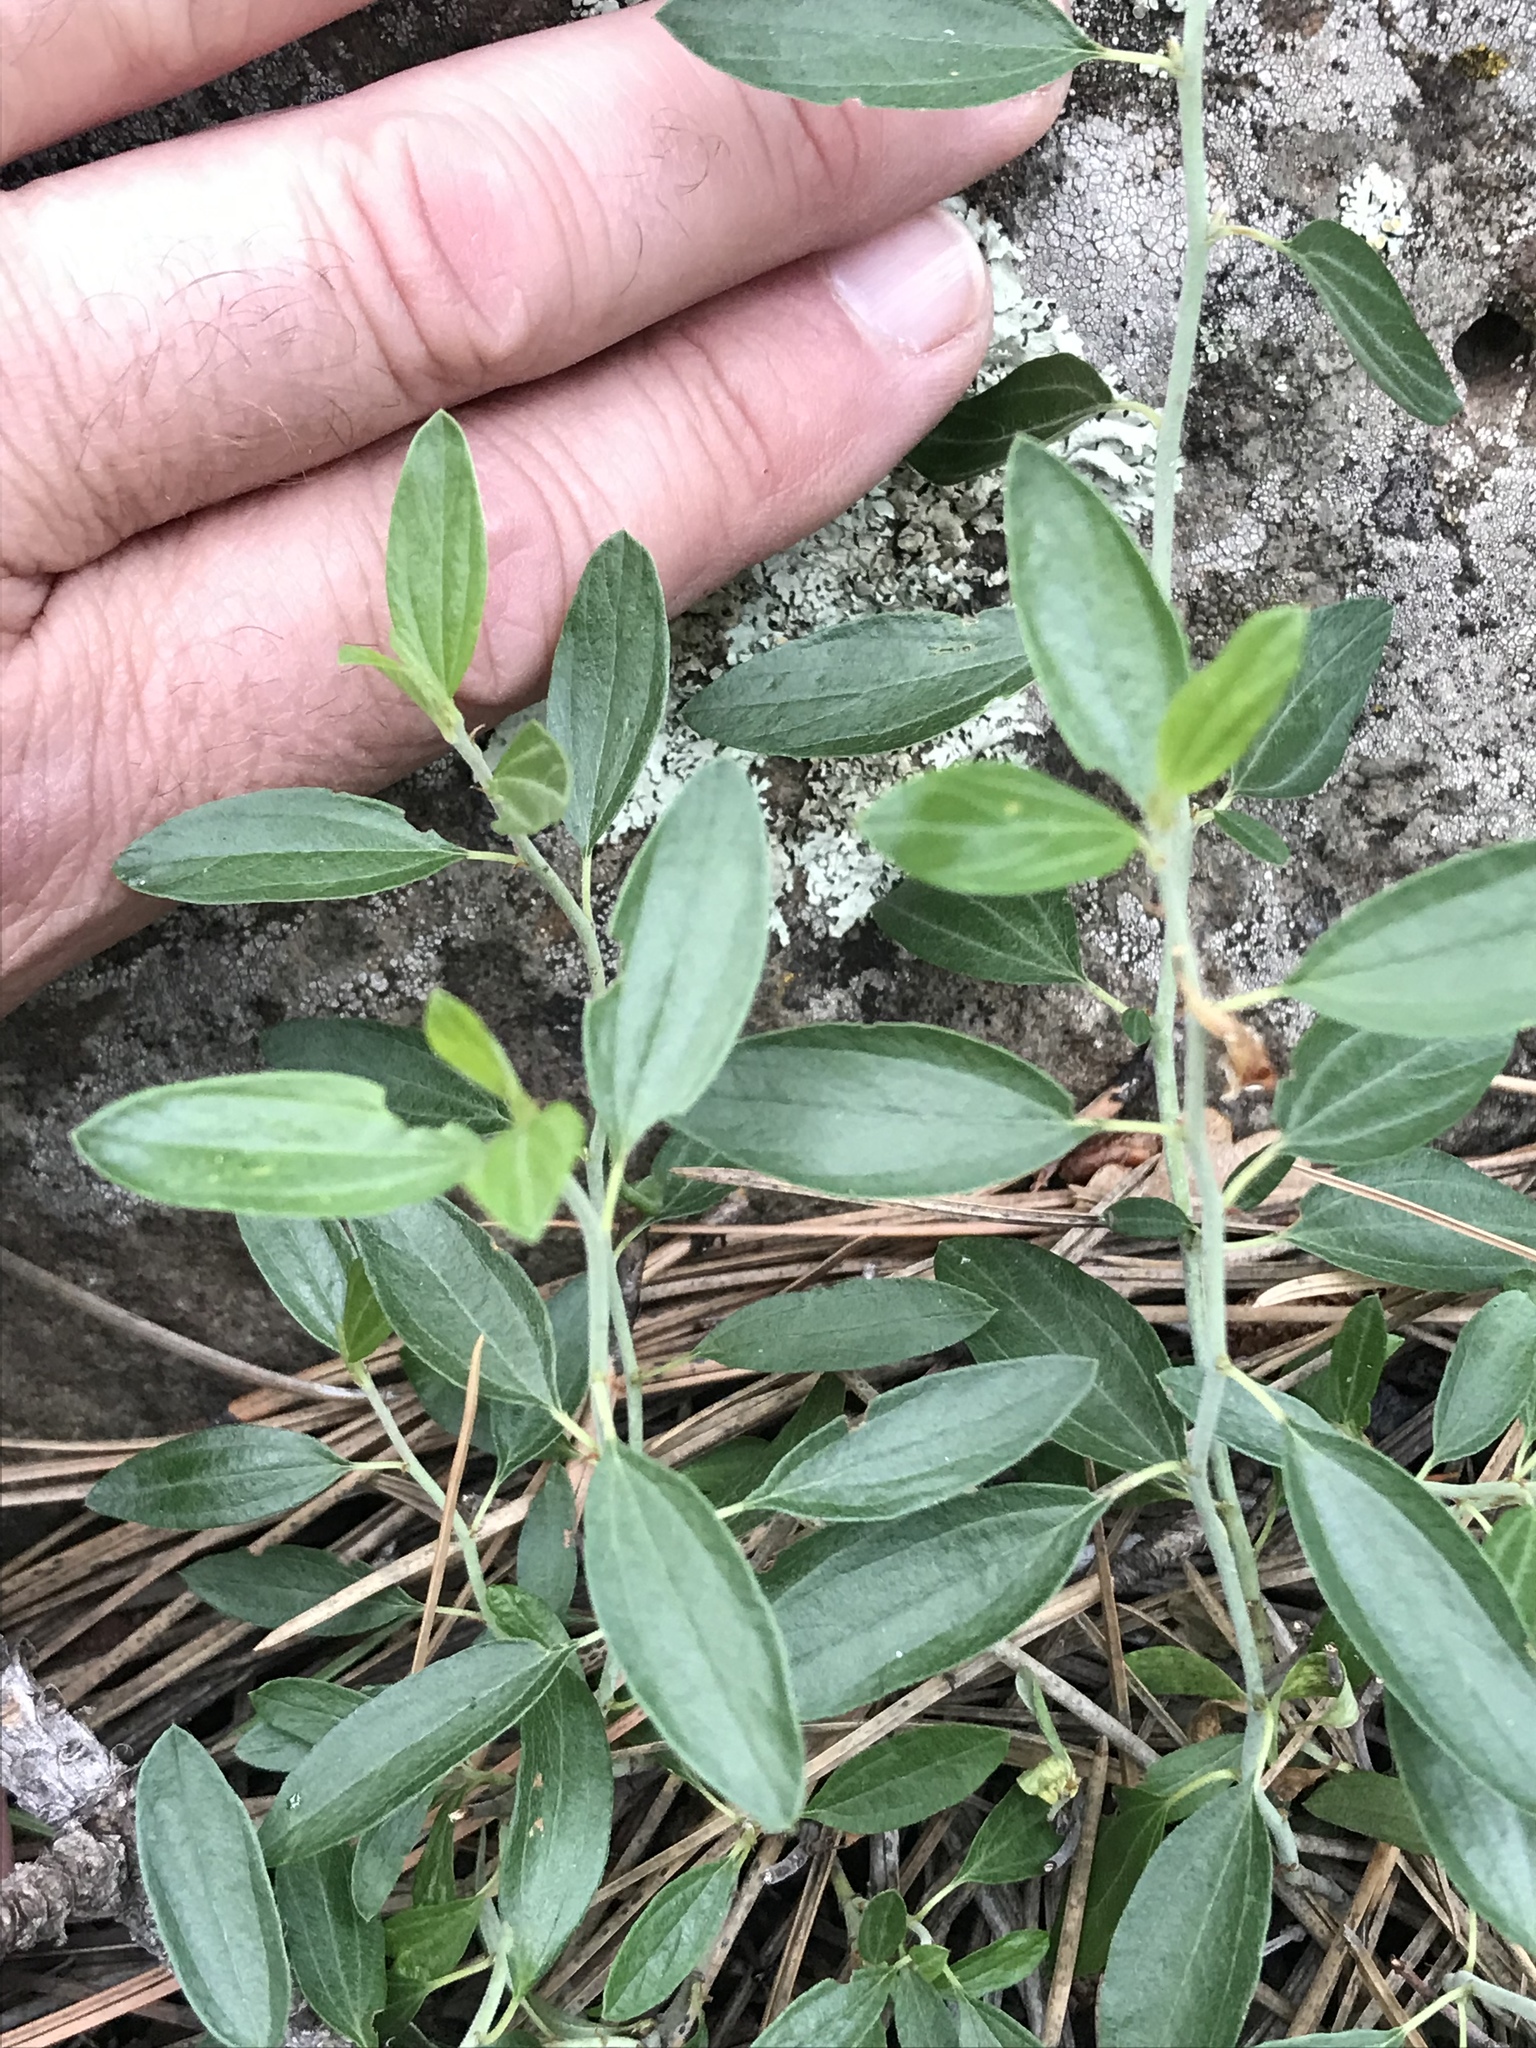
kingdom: Plantae
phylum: Tracheophyta
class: Magnoliopsida
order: Rosales
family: Rhamnaceae
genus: Ceanothus
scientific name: Ceanothus fendleri
